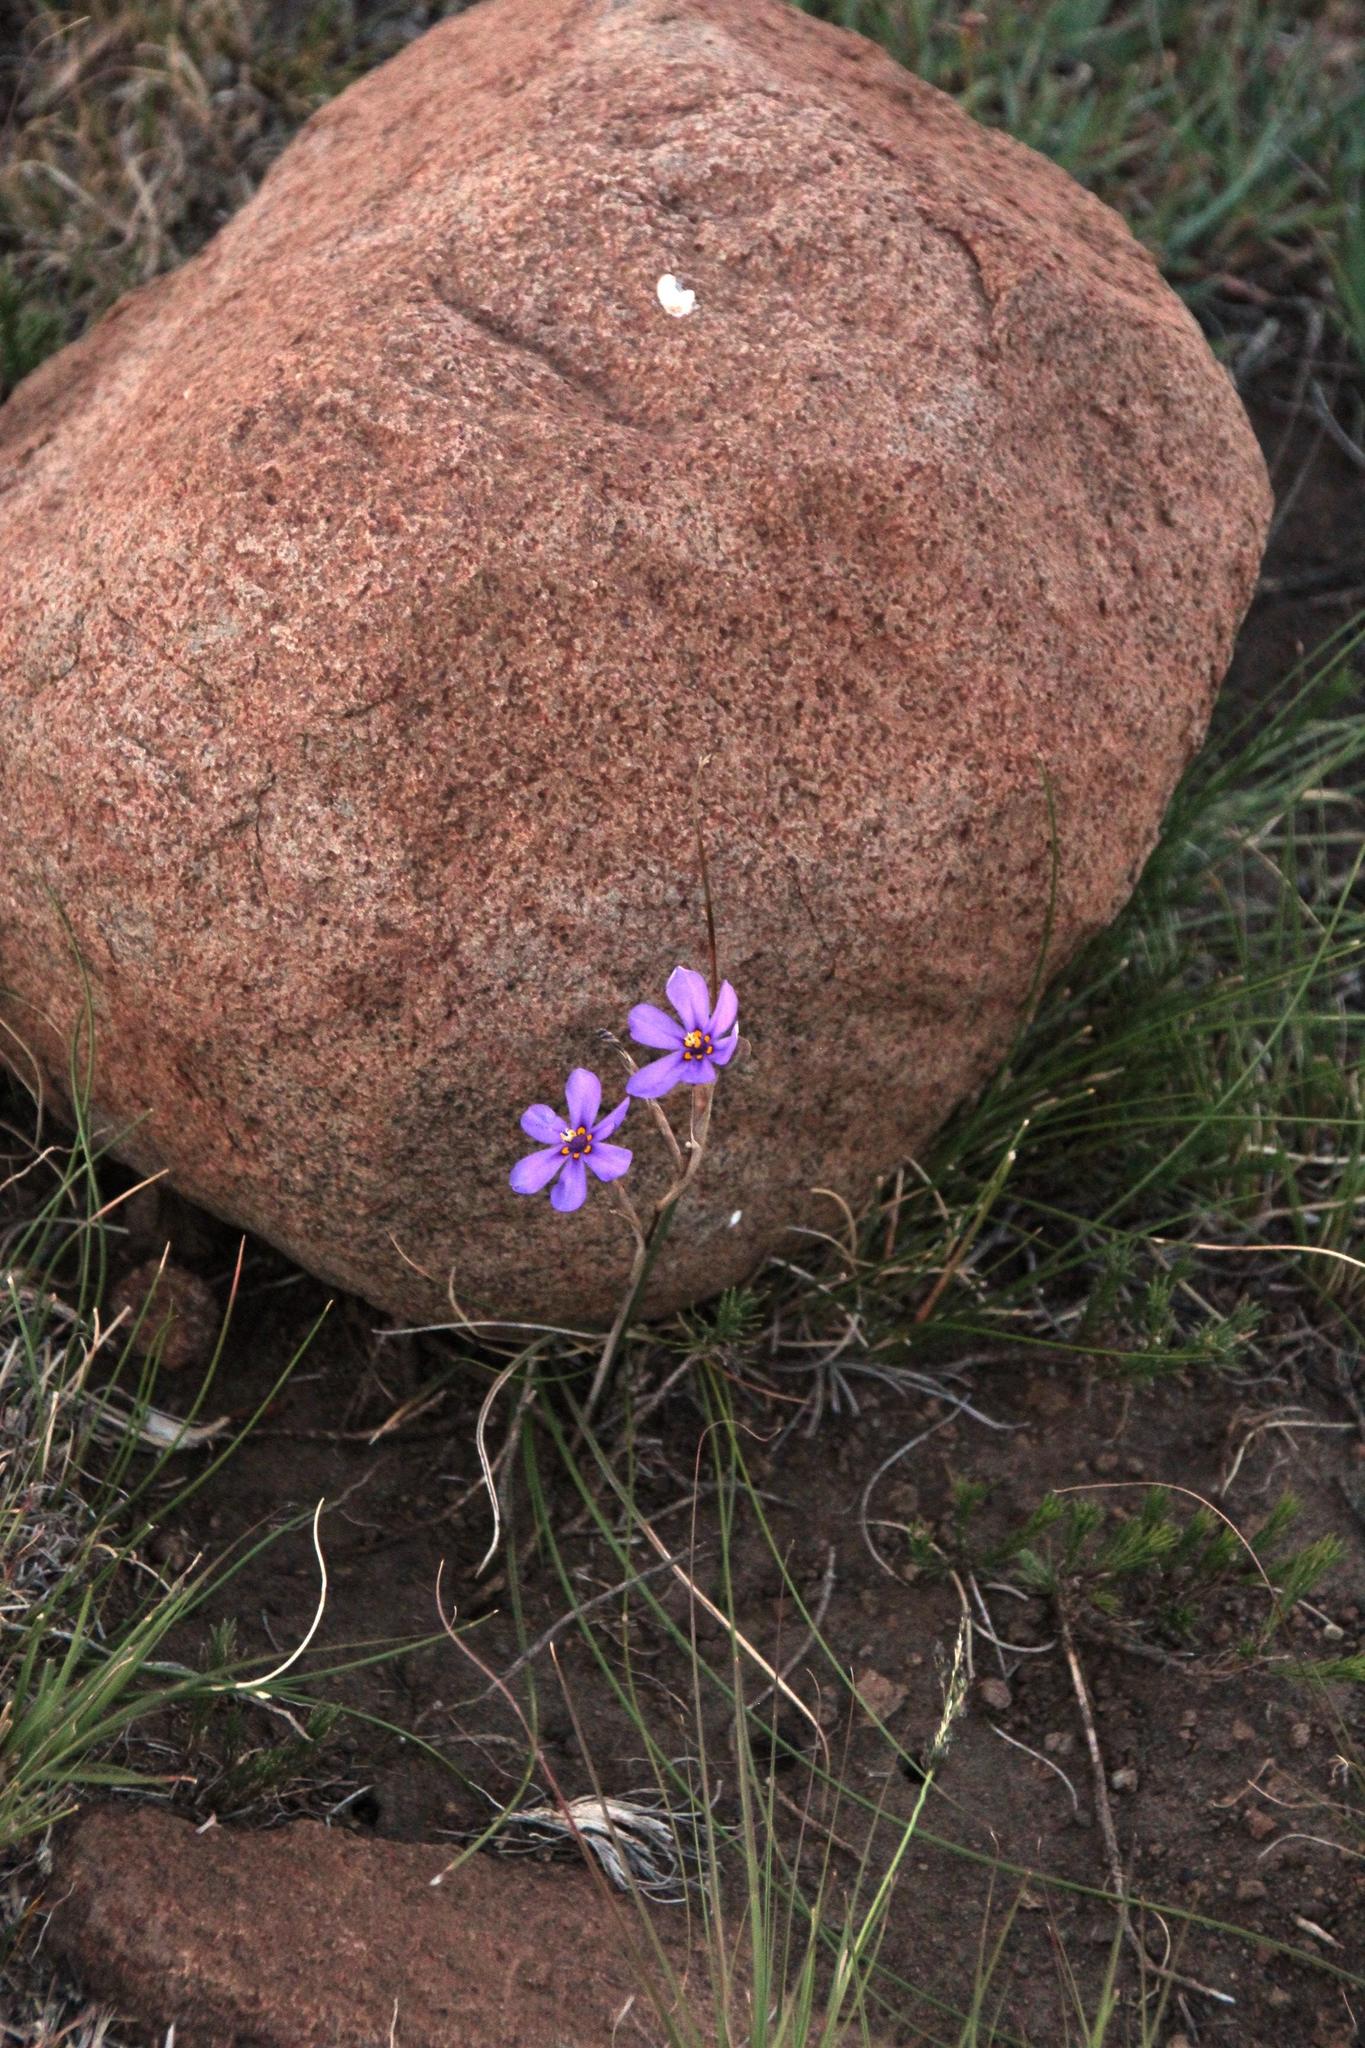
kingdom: Plantae
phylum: Tracheophyta
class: Liliopsida
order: Asparagales
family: Iridaceae
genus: Moraea
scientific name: Moraea crispa
